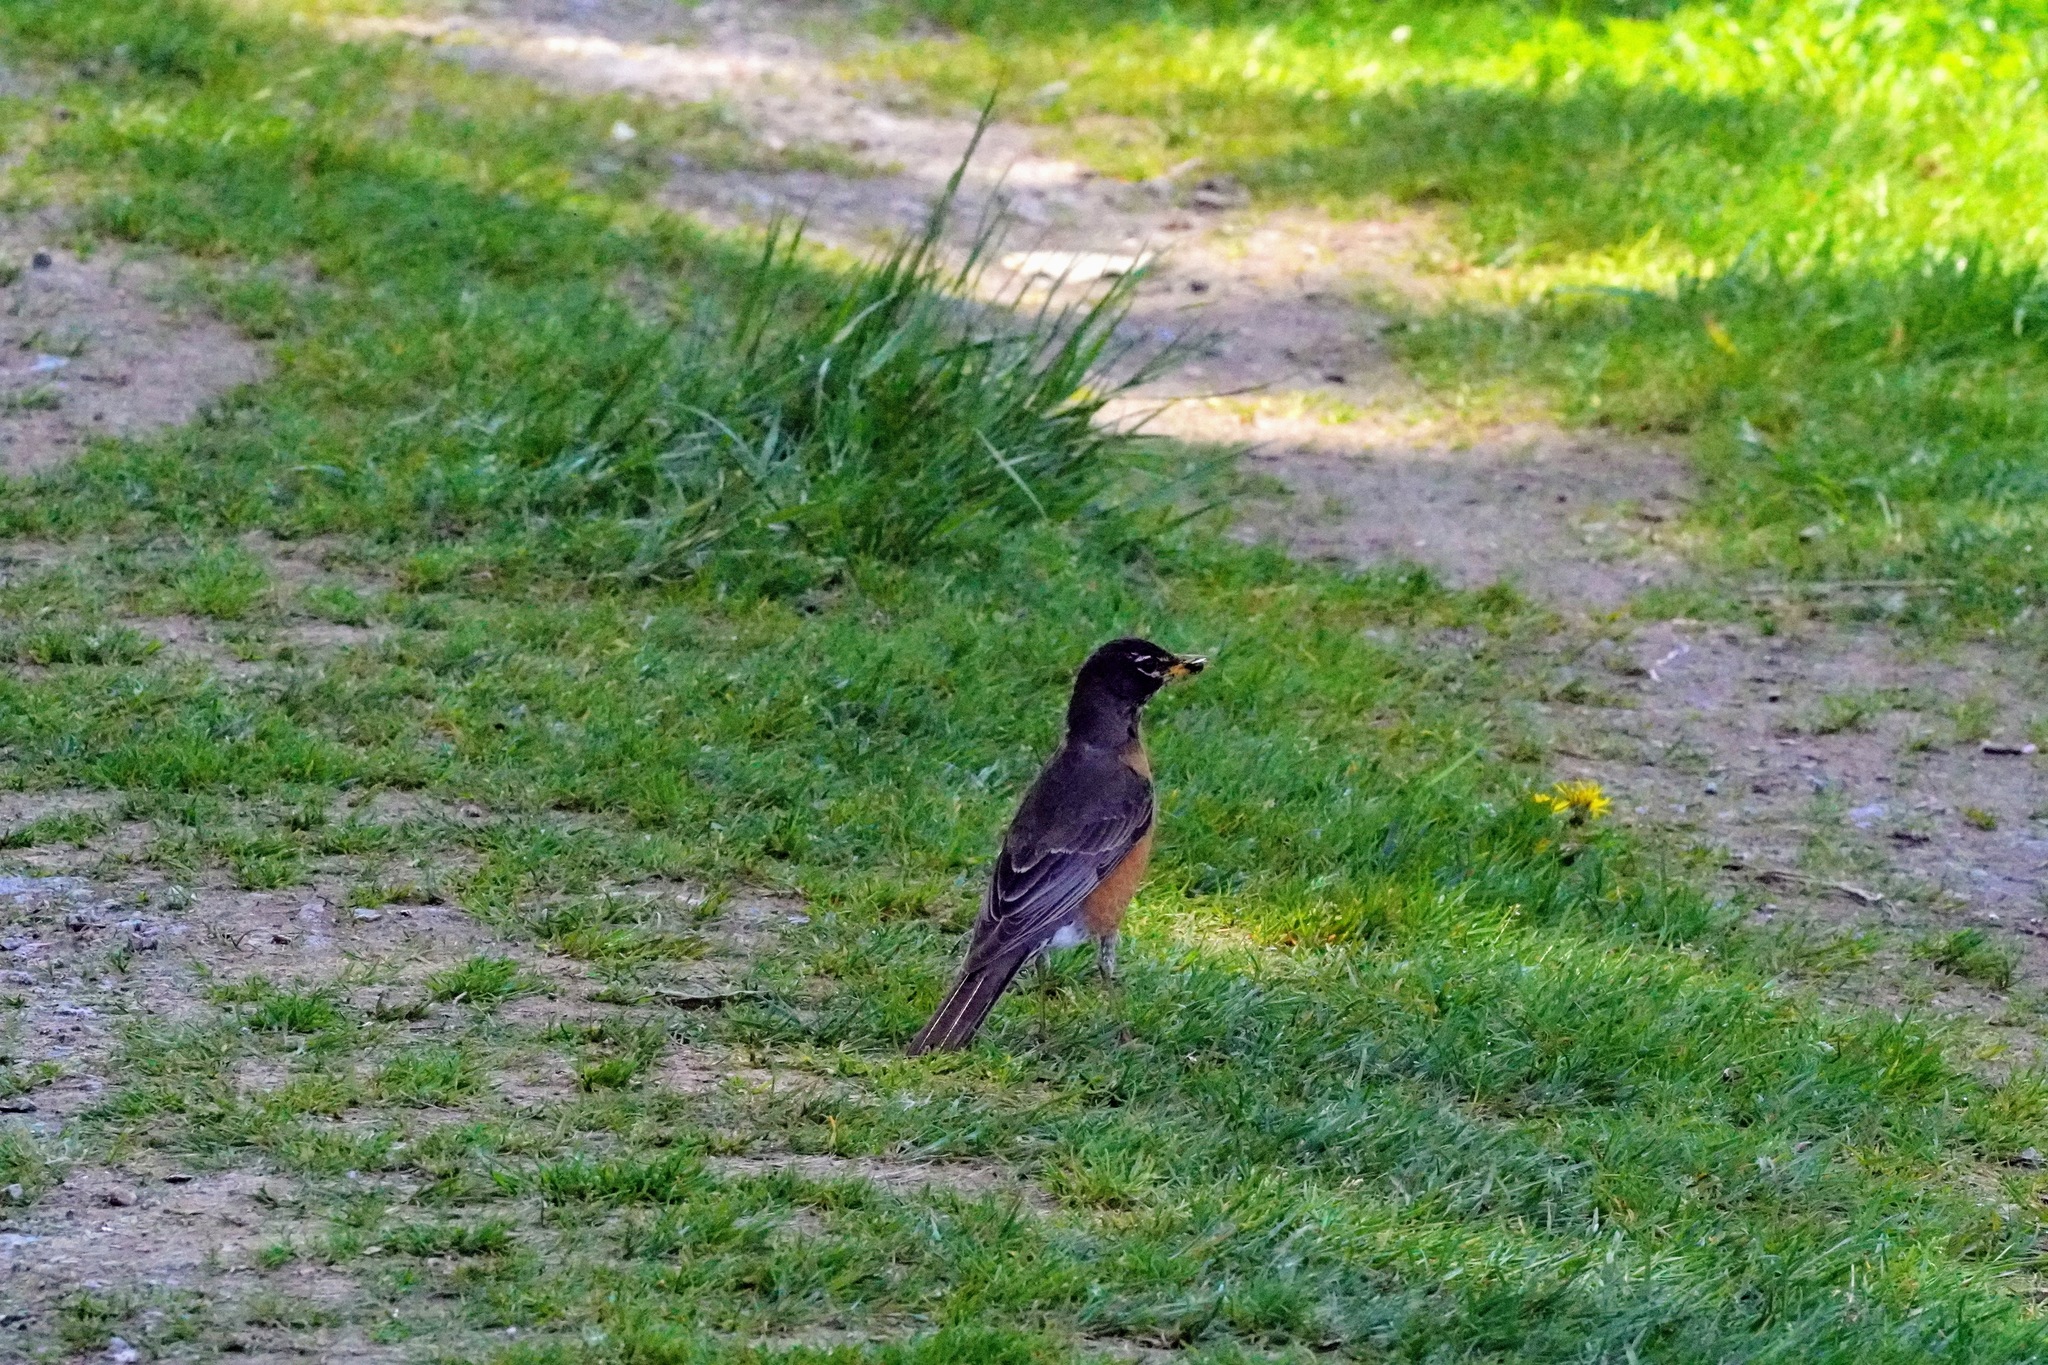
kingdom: Animalia
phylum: Chordata
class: Aves
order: Passeriformes
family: Turdidae
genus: Turdus
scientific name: Turdus migratorius
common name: American robin
